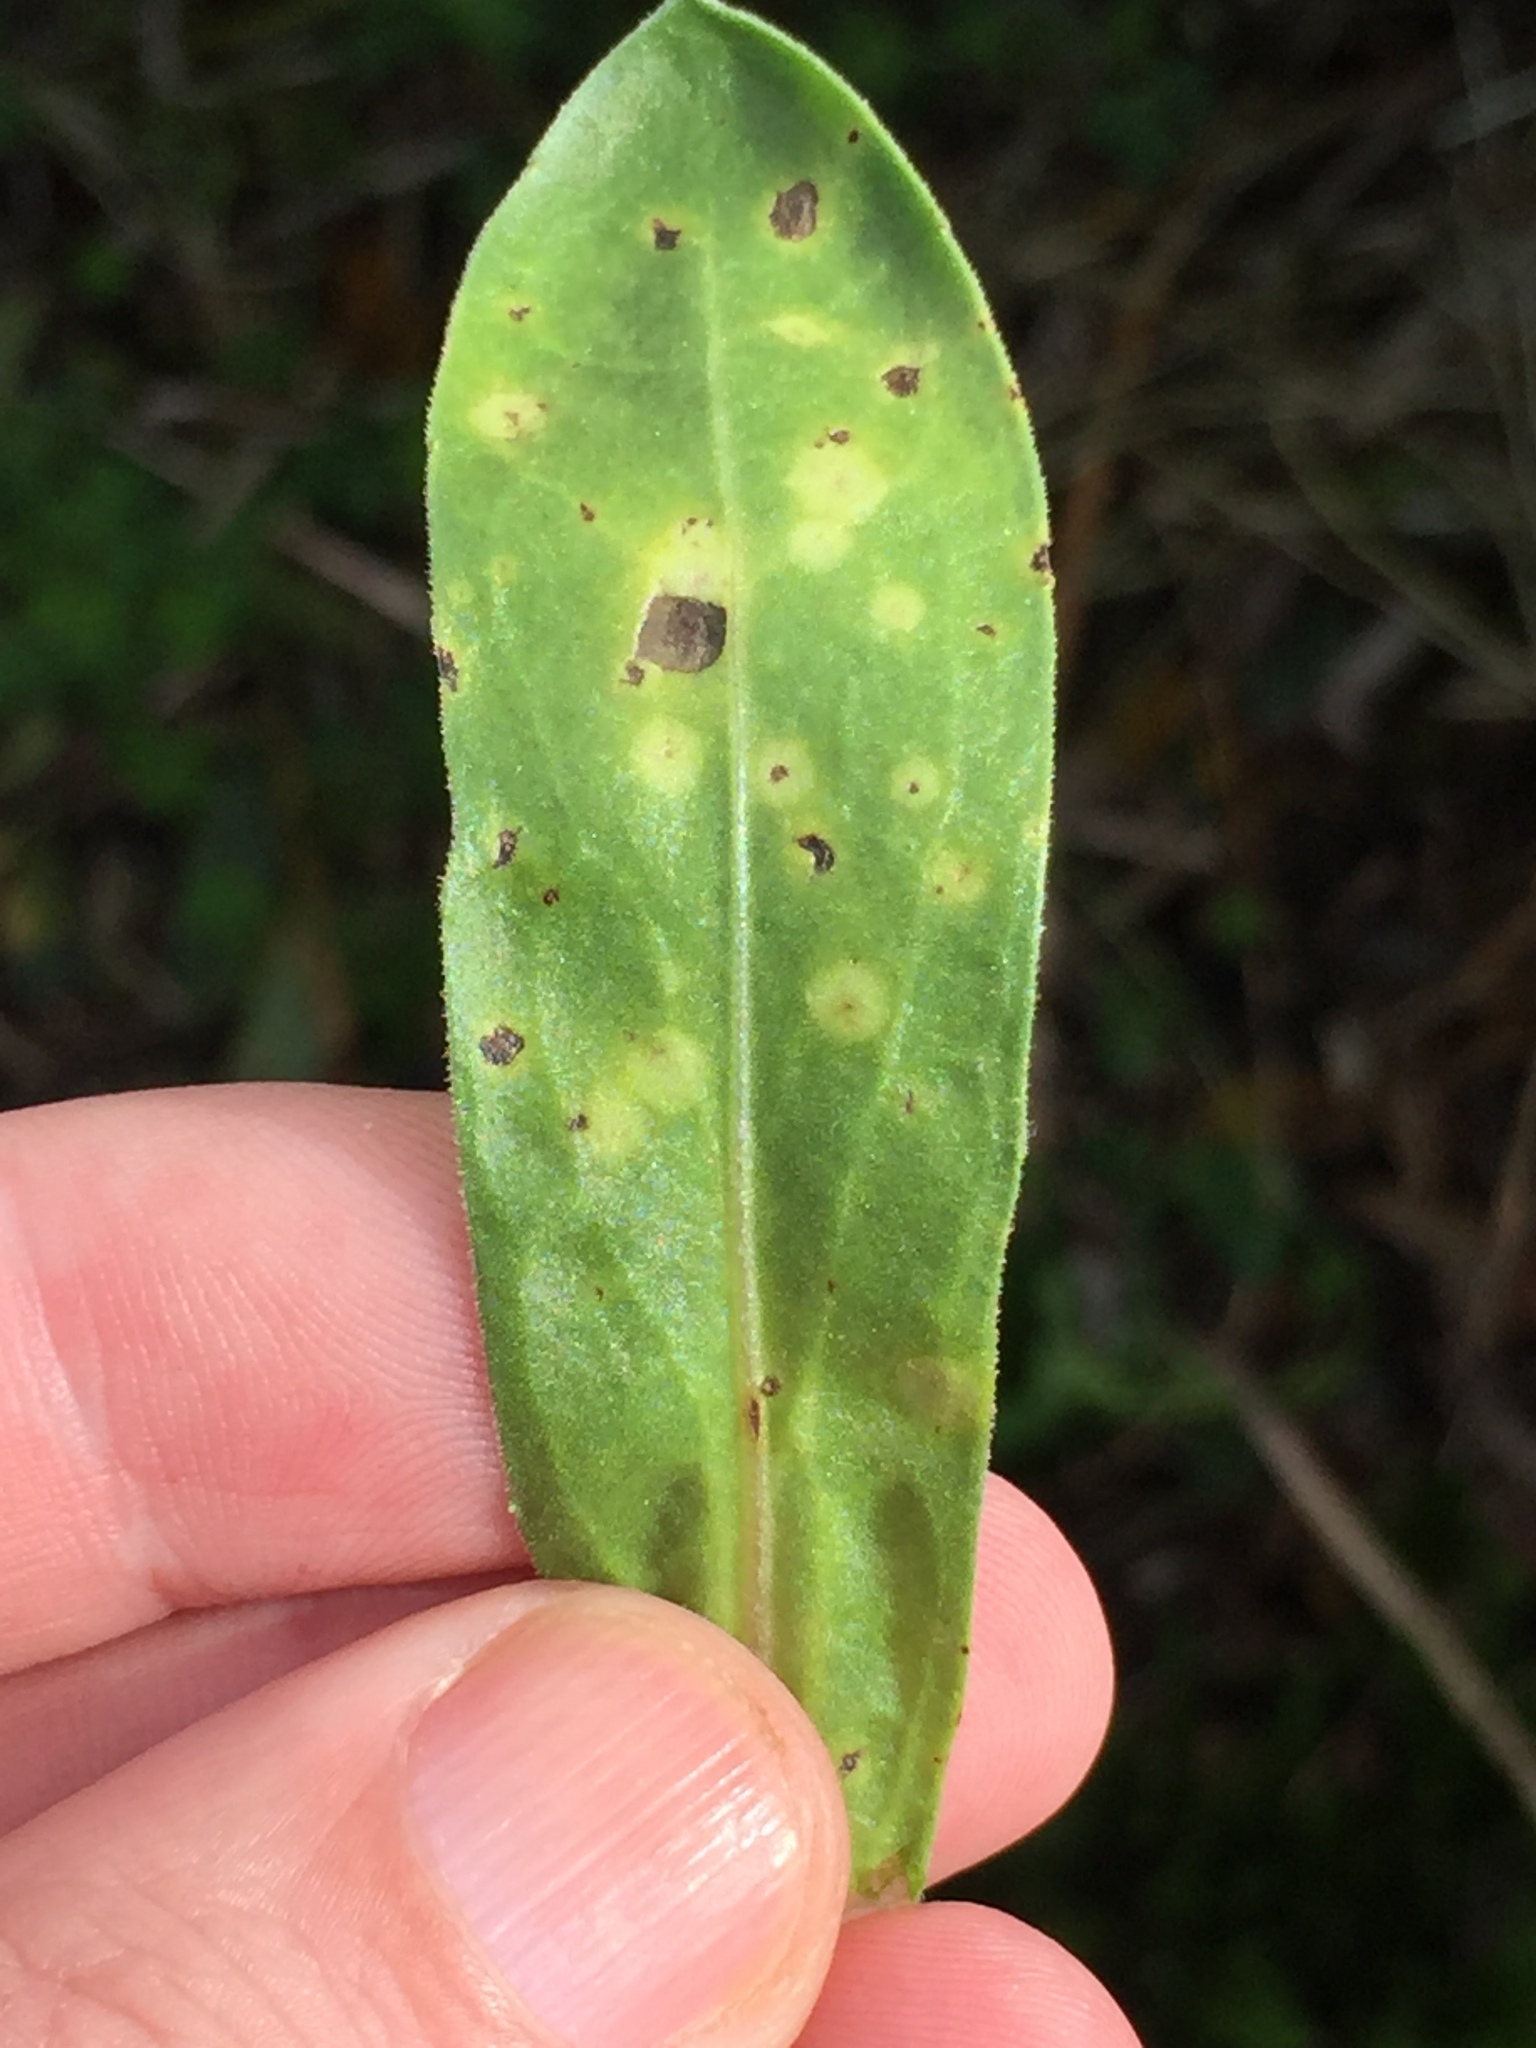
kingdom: Fungi
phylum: Basidiomycota
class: Exobasidiomycetes
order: Entylomatales
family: Entylomataceae
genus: Entyloma
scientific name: Entyloma calendulae
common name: Calendula smut
